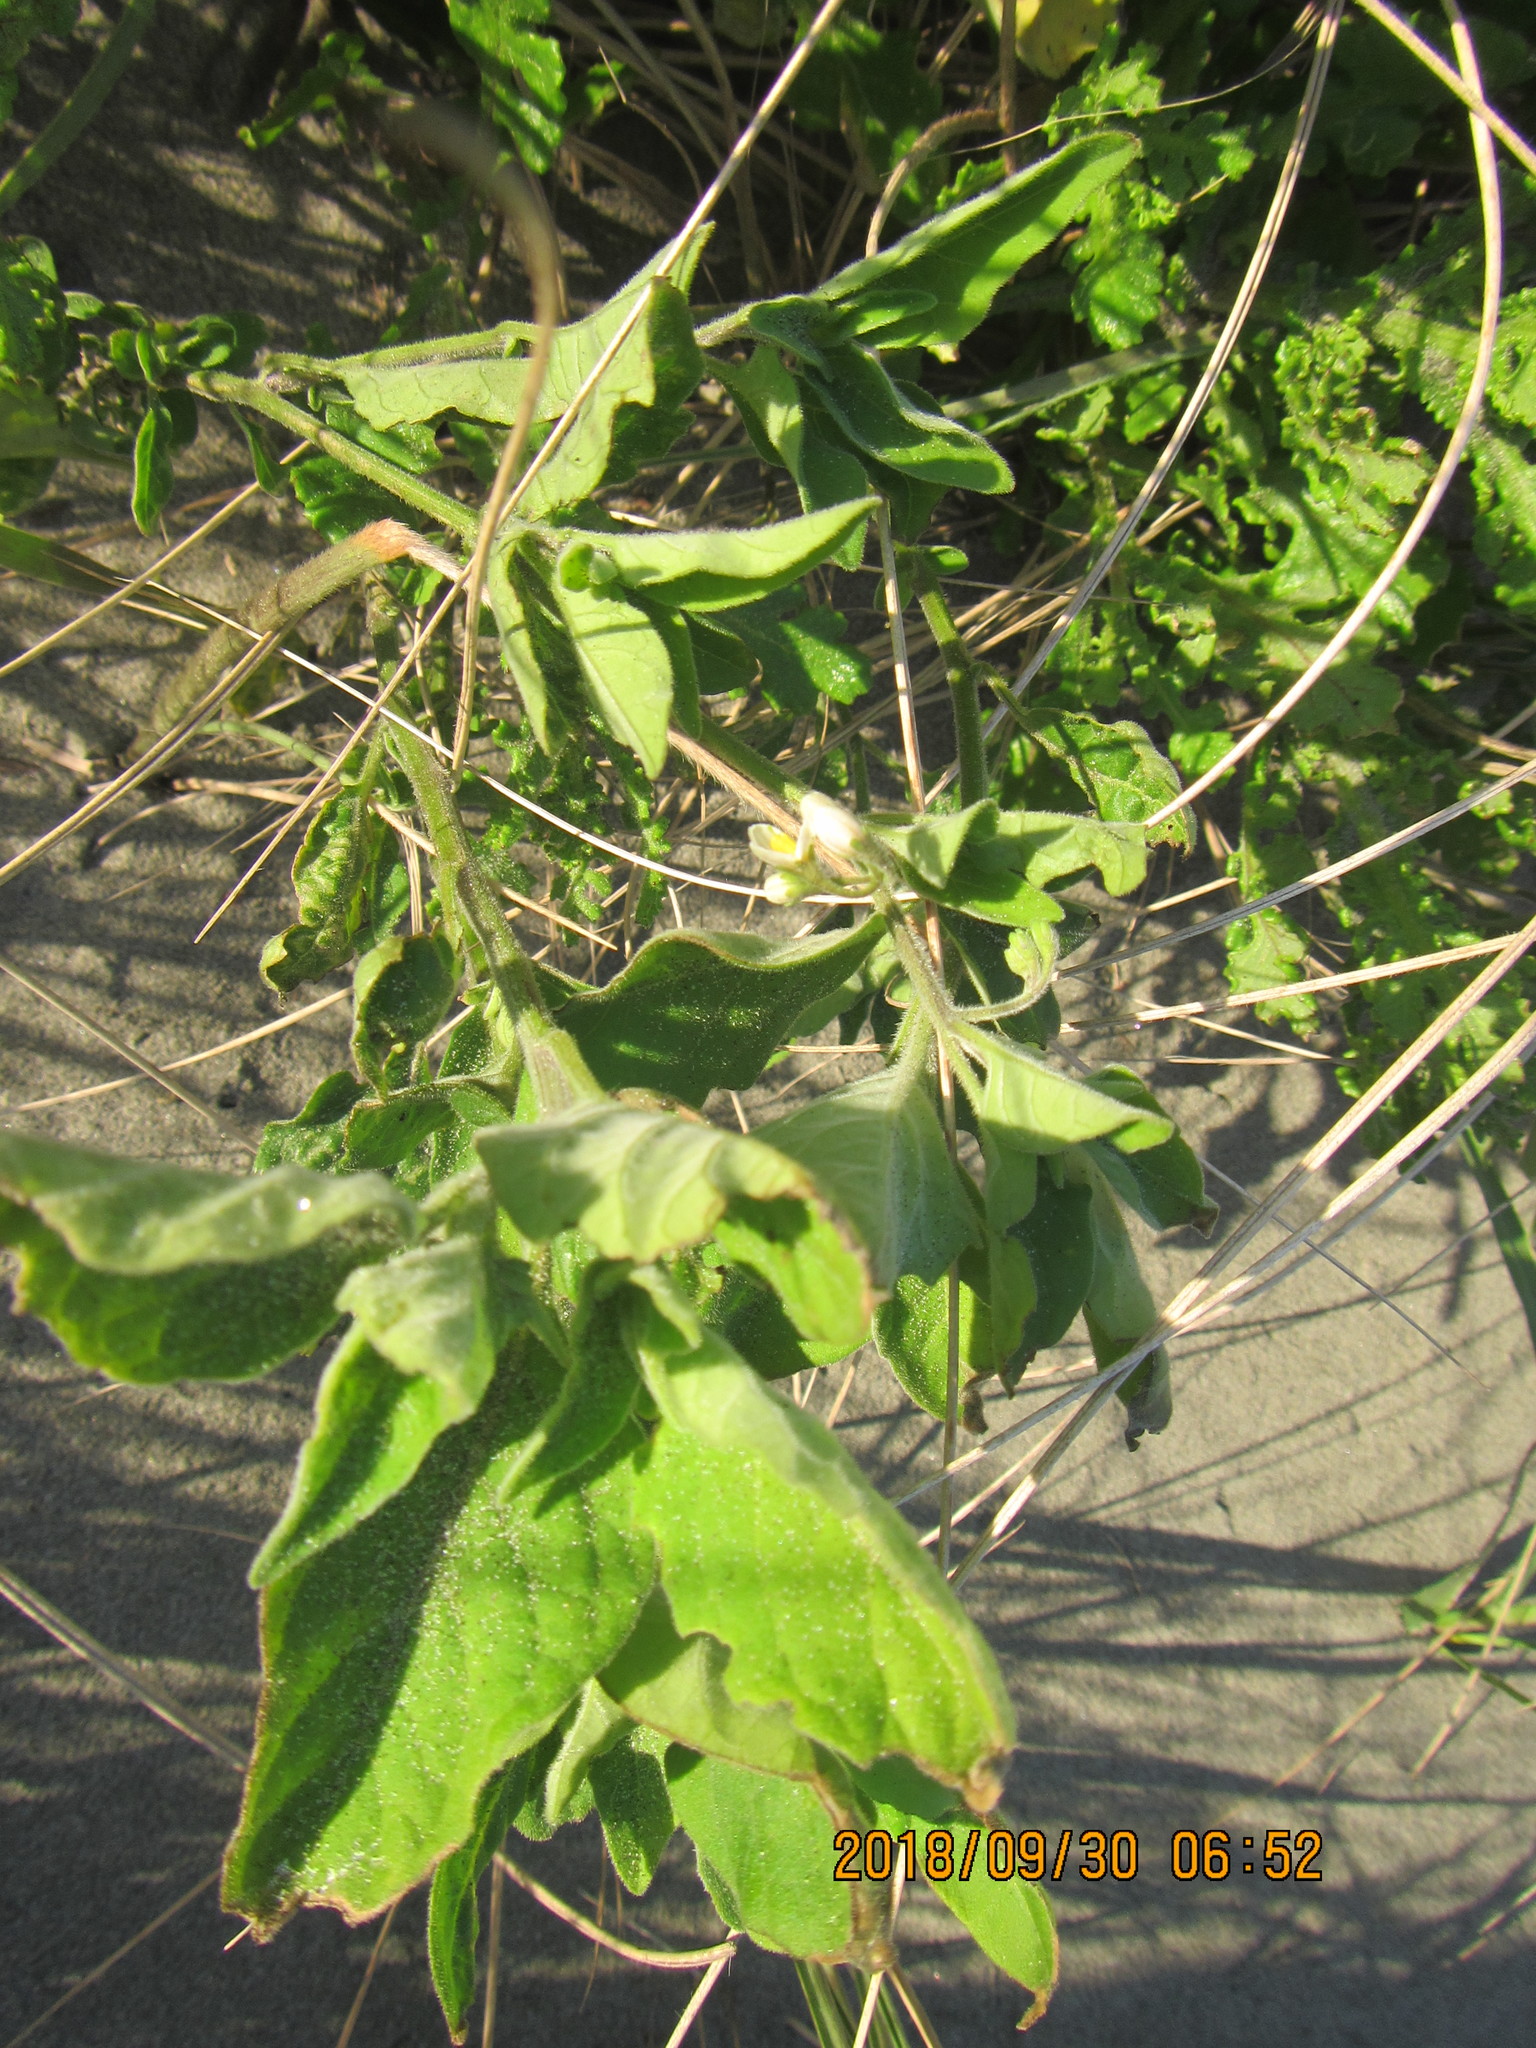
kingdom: Plantae
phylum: Tracheophyta
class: Magnoliopsida
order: Solanales
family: Solanaceae
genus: Solanum
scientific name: Solanum chenopodioides
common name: Tall nightshade
